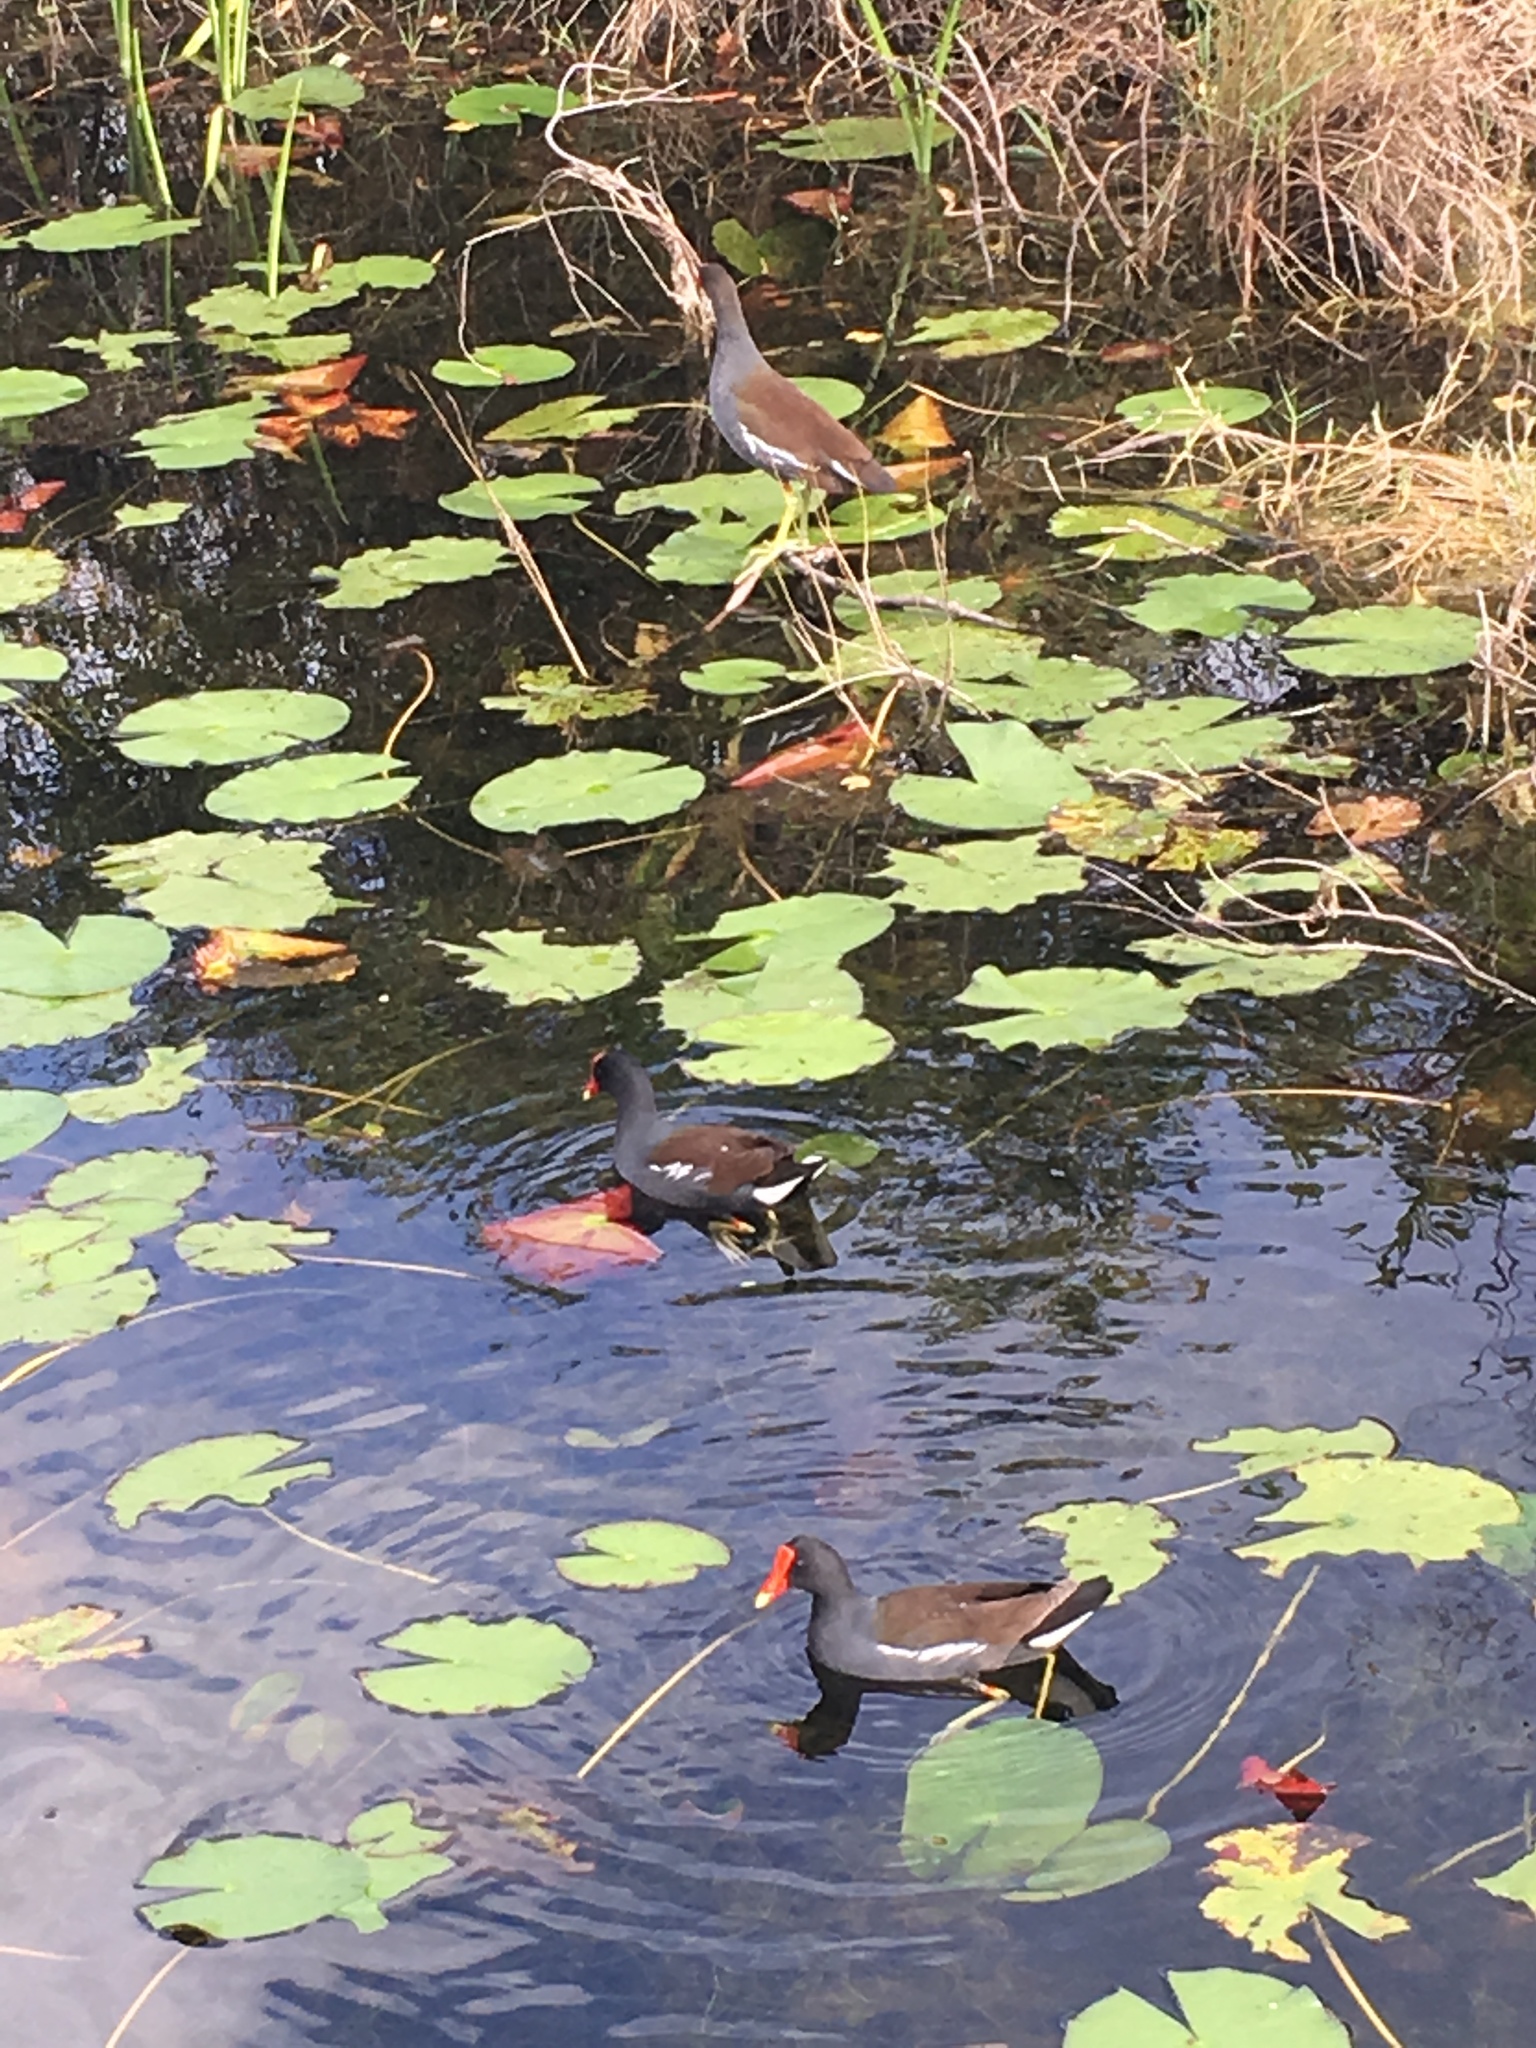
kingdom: Animalia
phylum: Chordata
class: Aves
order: Gruiformes
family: Rallidae
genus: Gallinula
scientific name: Gallinula chloropus
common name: Common moorhen
